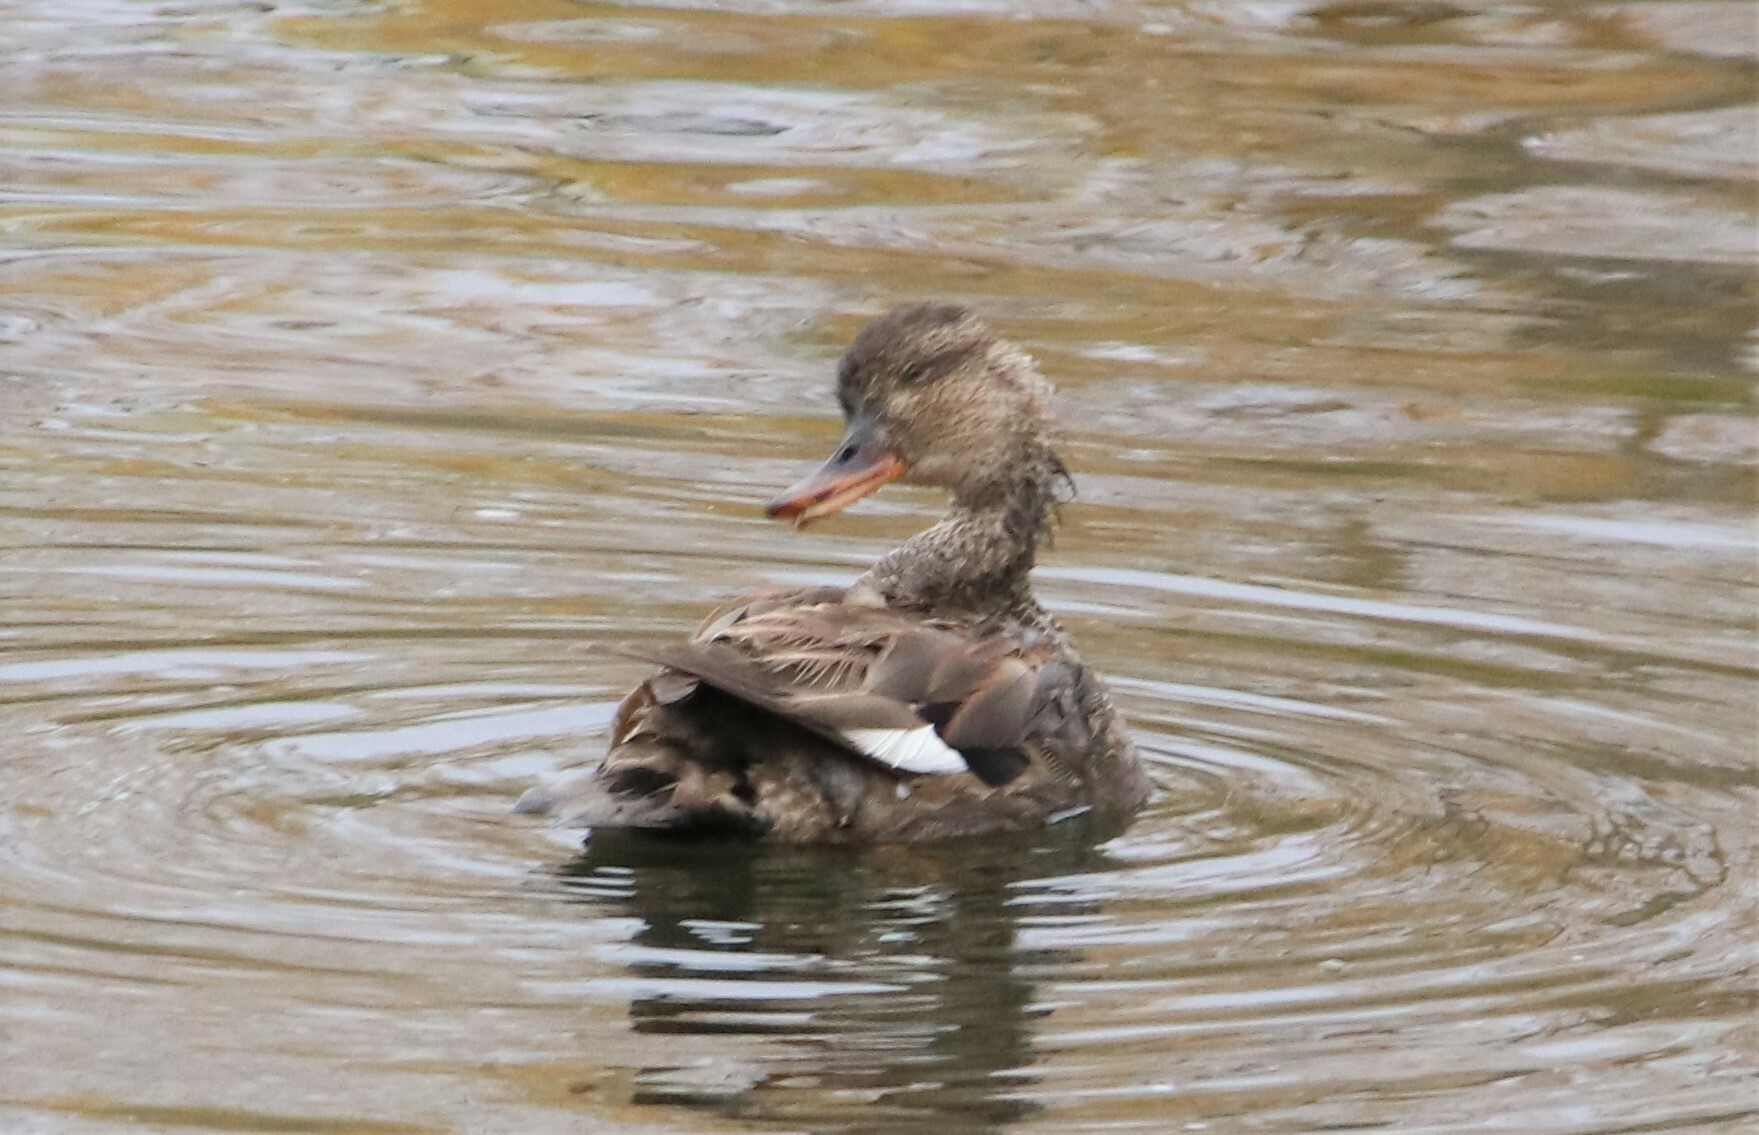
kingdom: Animalia
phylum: Chordata
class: Aves
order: Anseriformes
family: Anatidae
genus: Mareca
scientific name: Mareca strepera
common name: Gadwall
